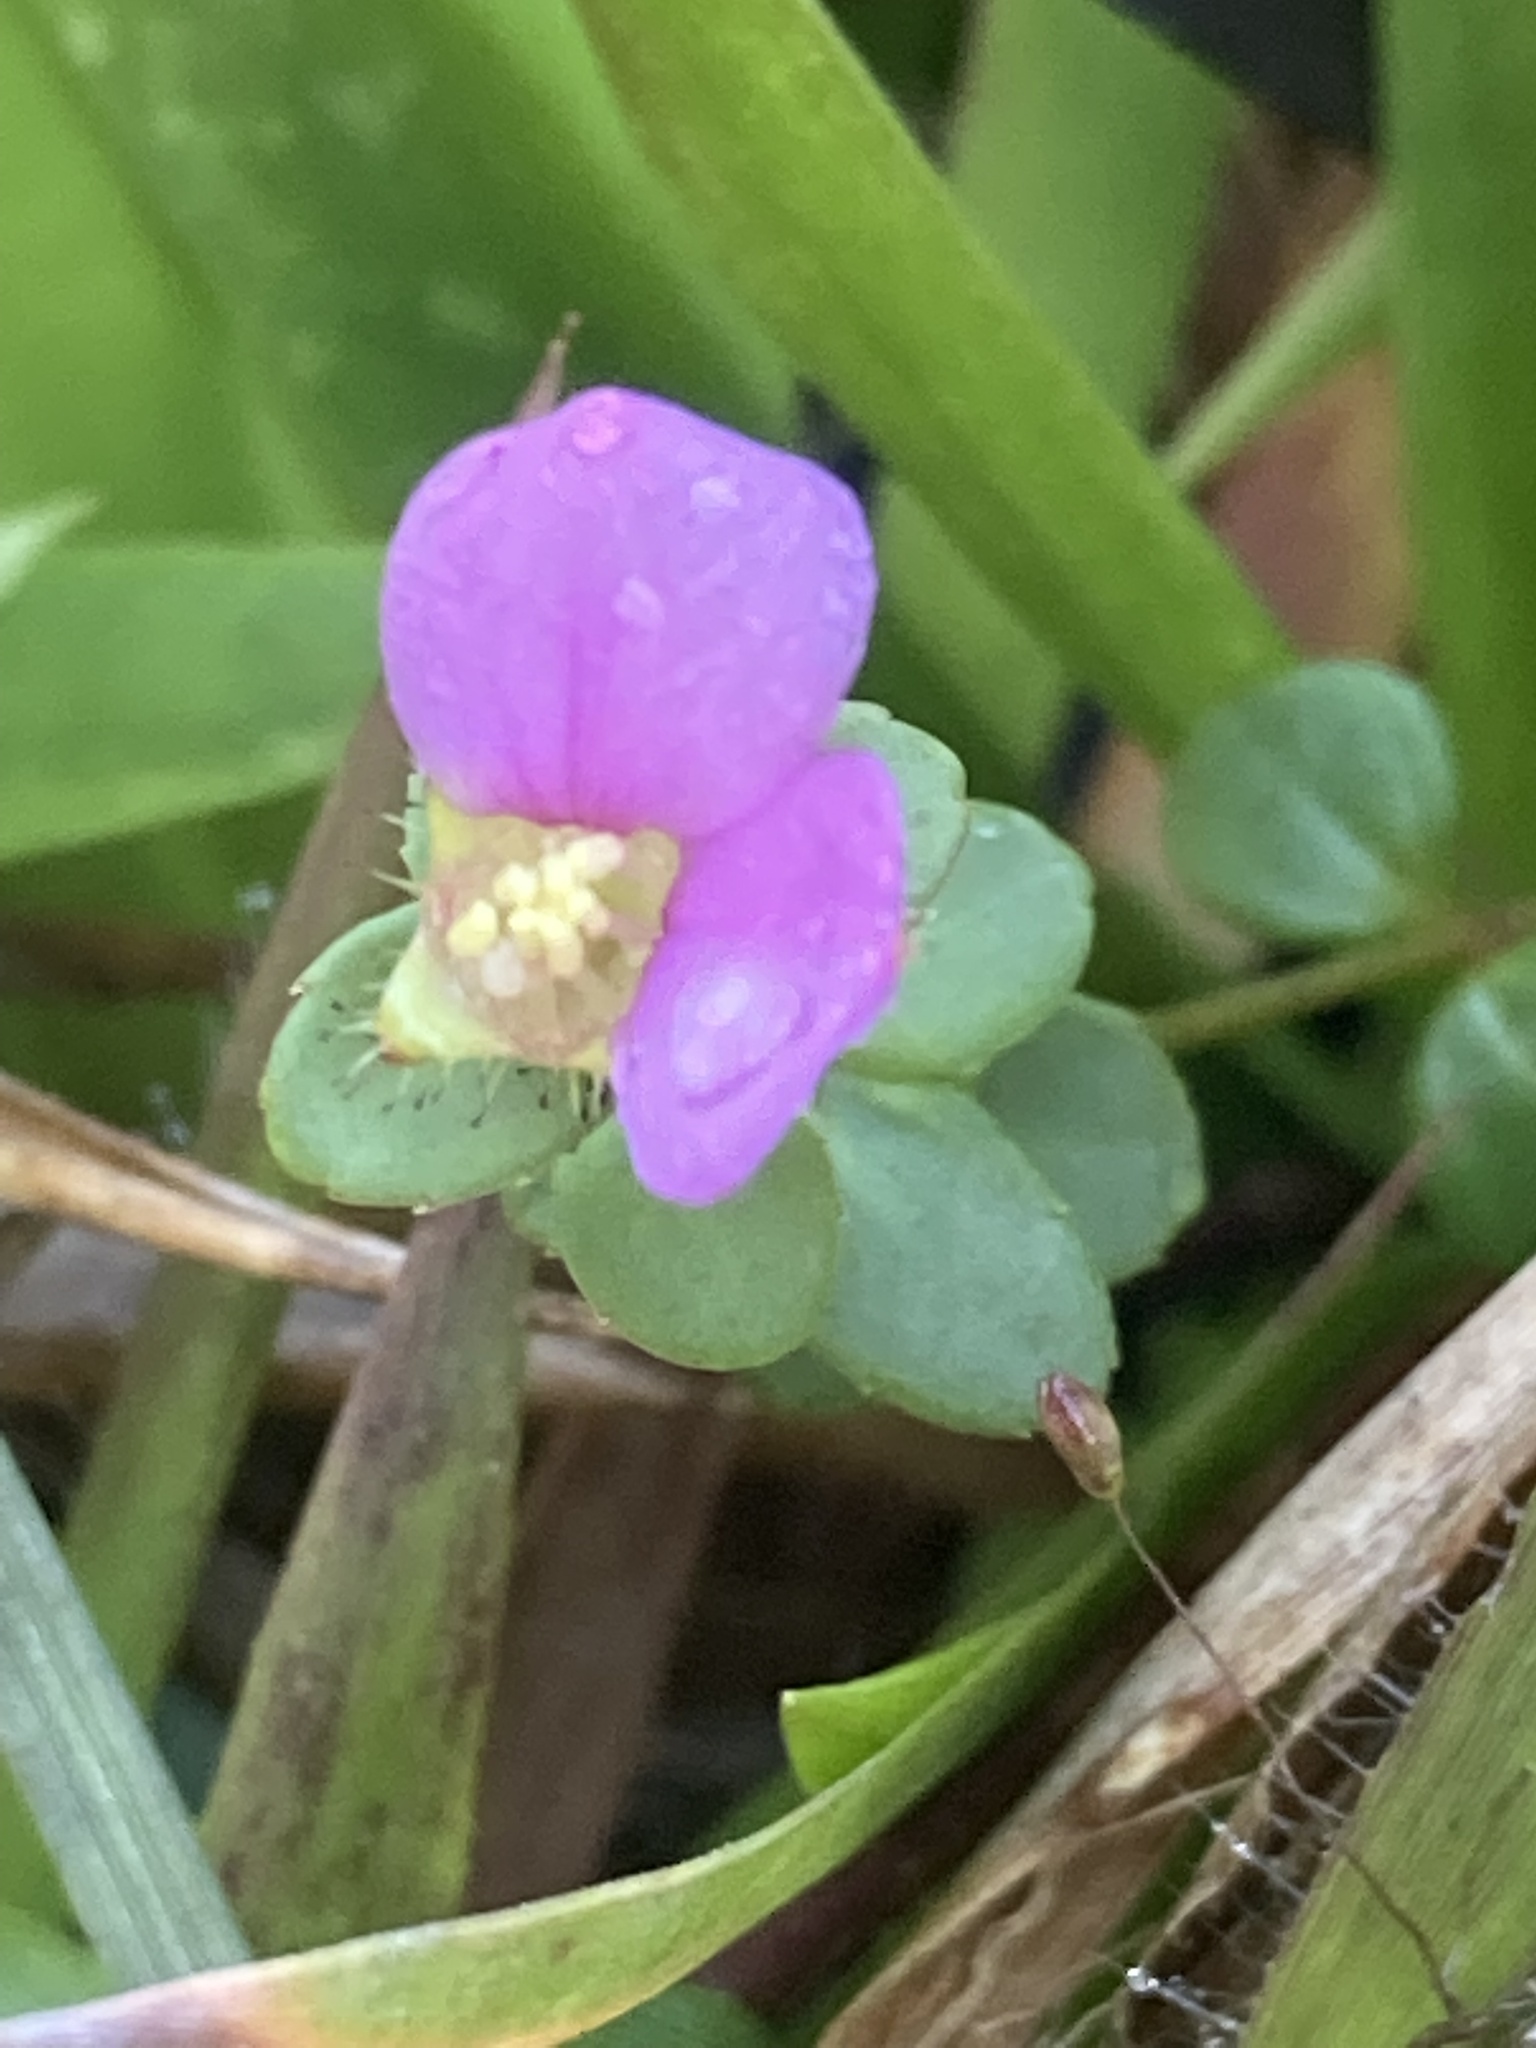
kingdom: Plantae
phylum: Tracheophyta
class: Magnoliopsida
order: Myrtales
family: Melastomataceae
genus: Rhexia
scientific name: Rhexia nuttallii
